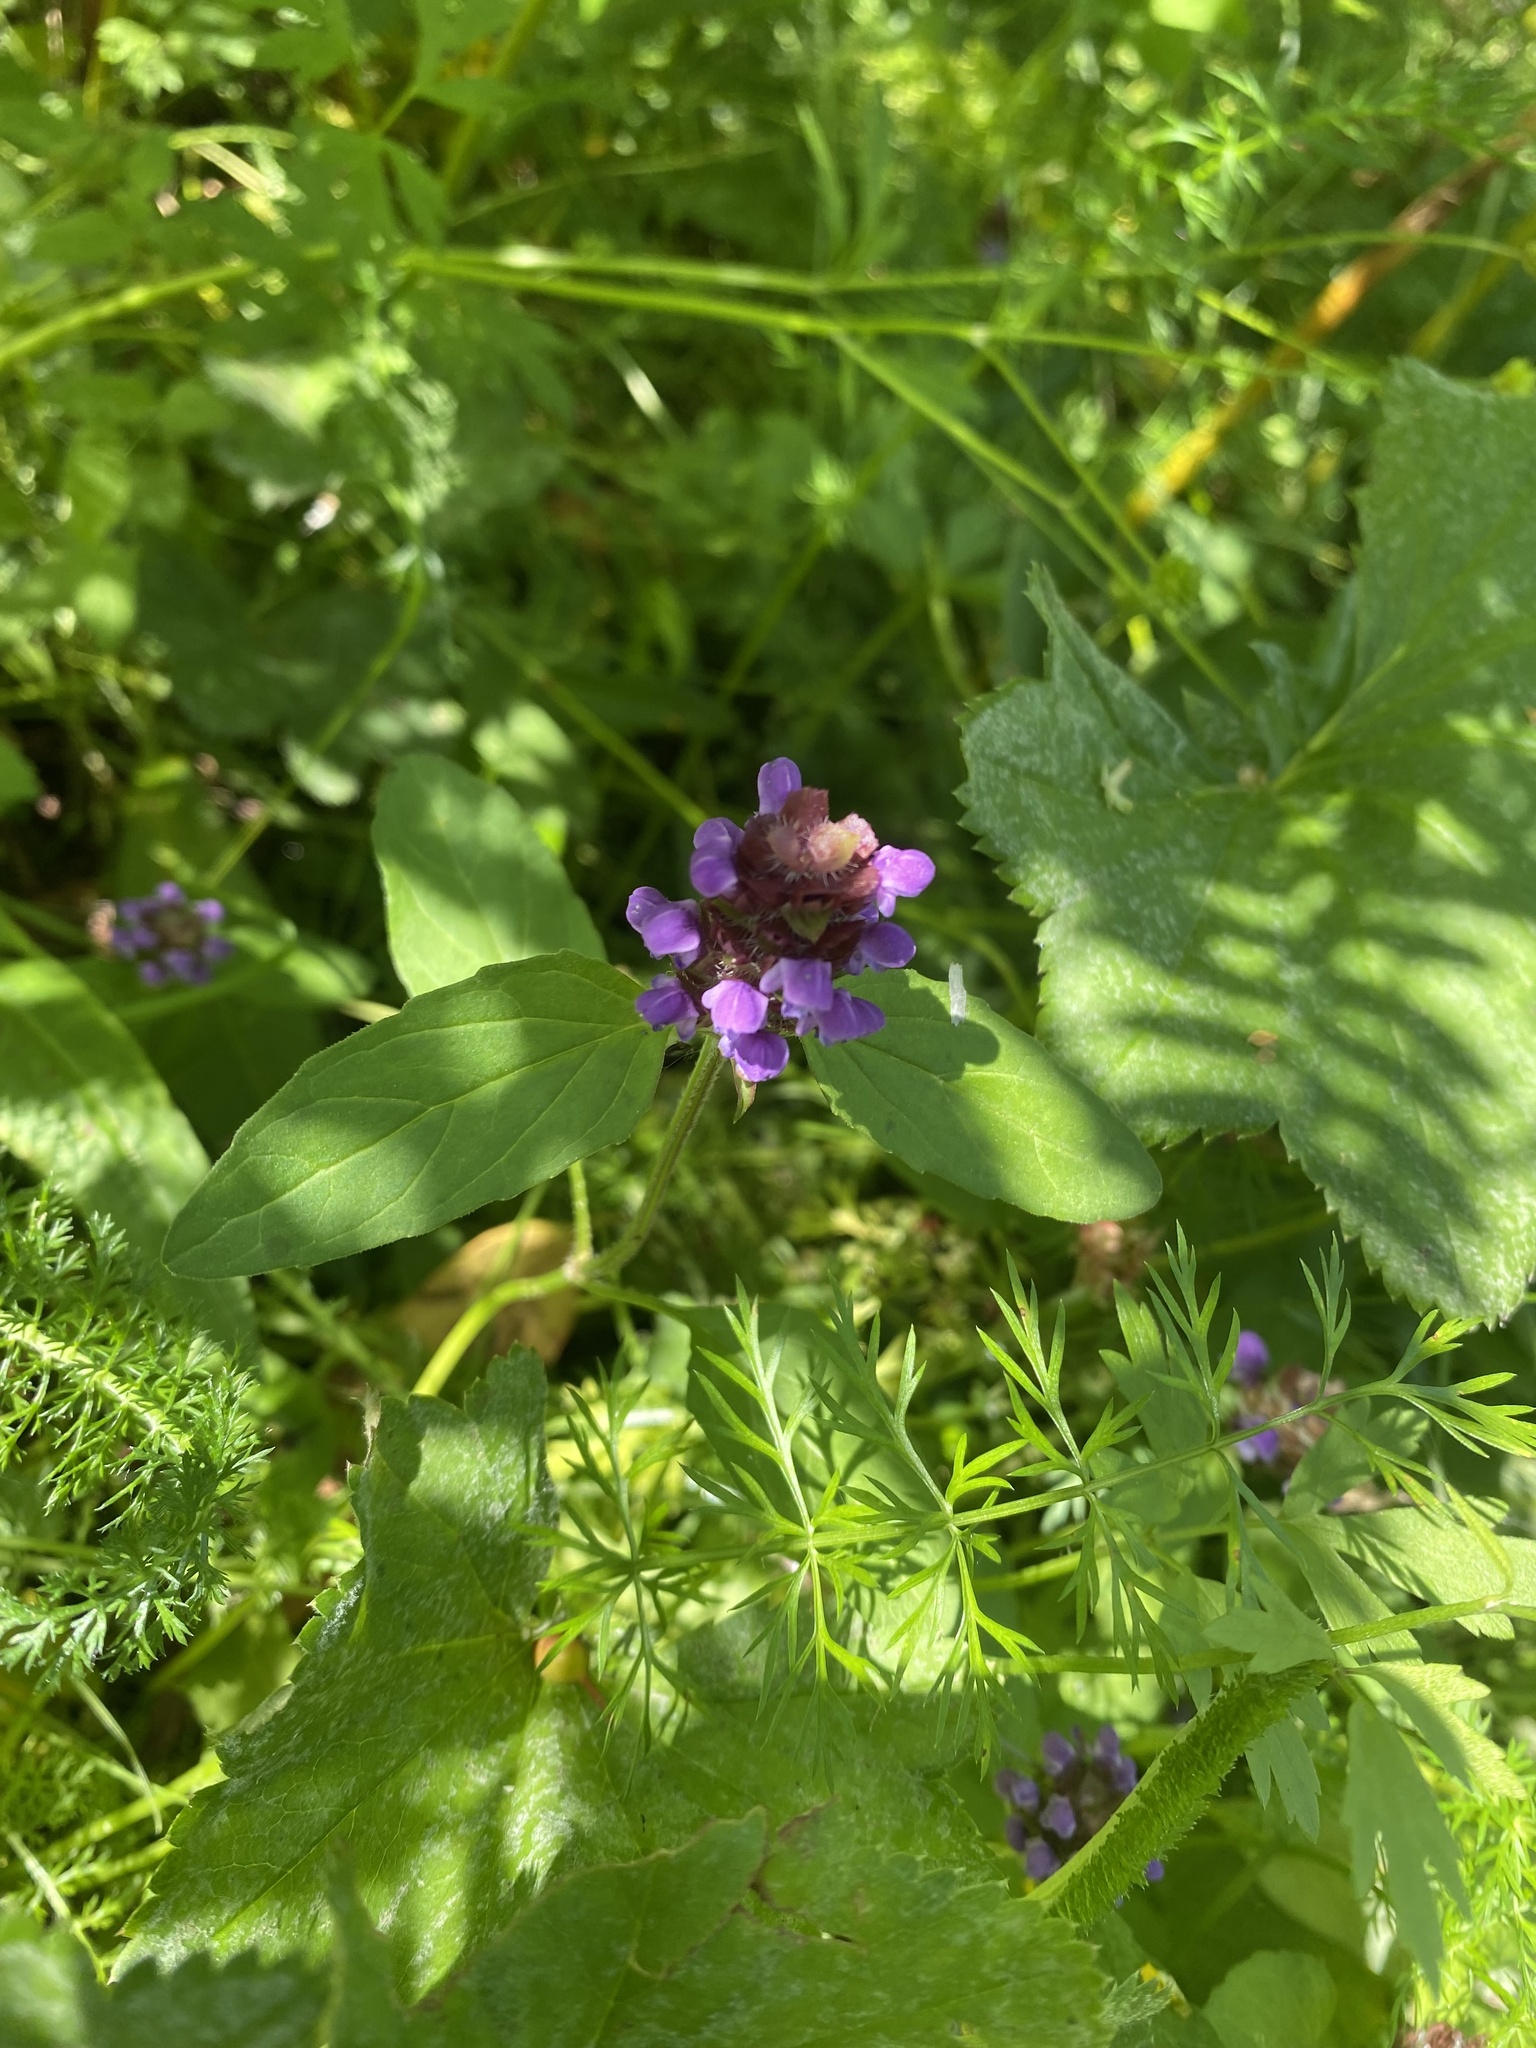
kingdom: Plantae
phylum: Tracheophyta
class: Magnoliopsida
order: Lamiales
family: Lamiaceae
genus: Prunella
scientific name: Prunella vulgaris
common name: Heal-all
